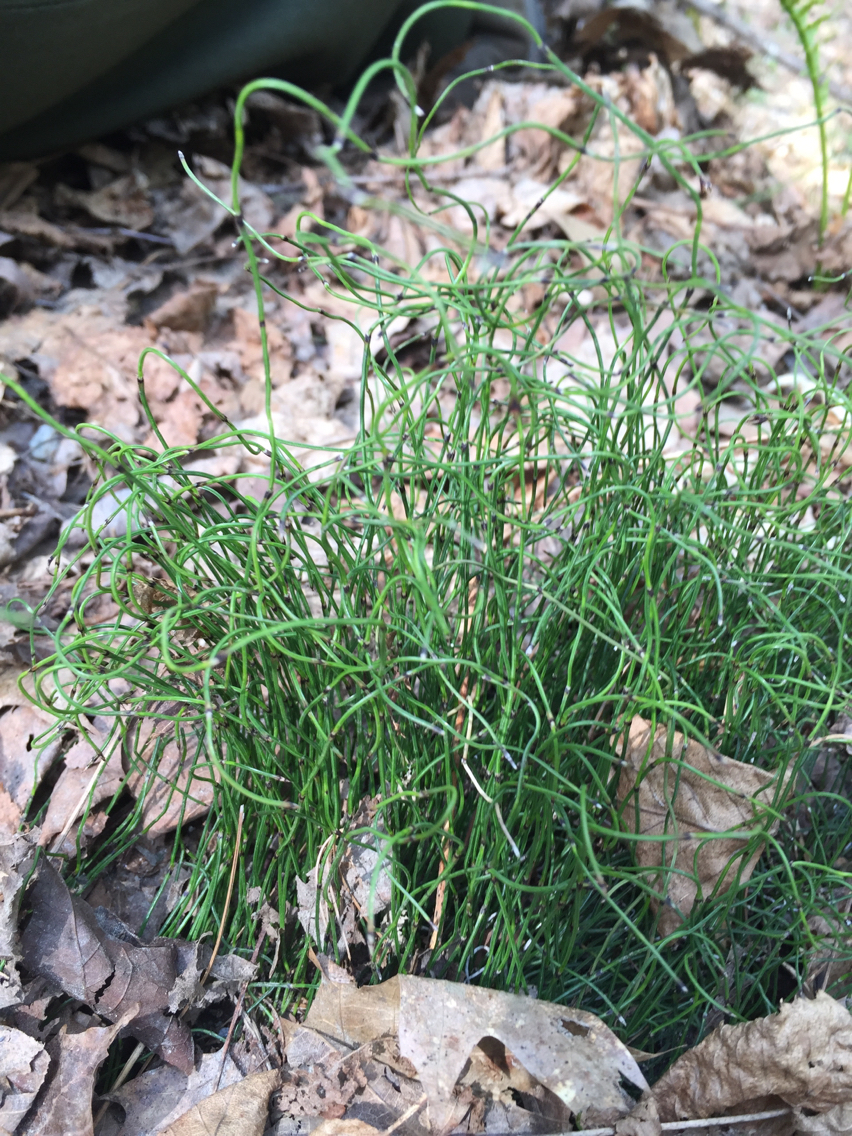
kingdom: Plantae
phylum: Tracheophyta
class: Polypodiopsida
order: Equisetales
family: Equisetaceae
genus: Equisetum
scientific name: Equisetum scirpoides
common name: Delicate horsetail
